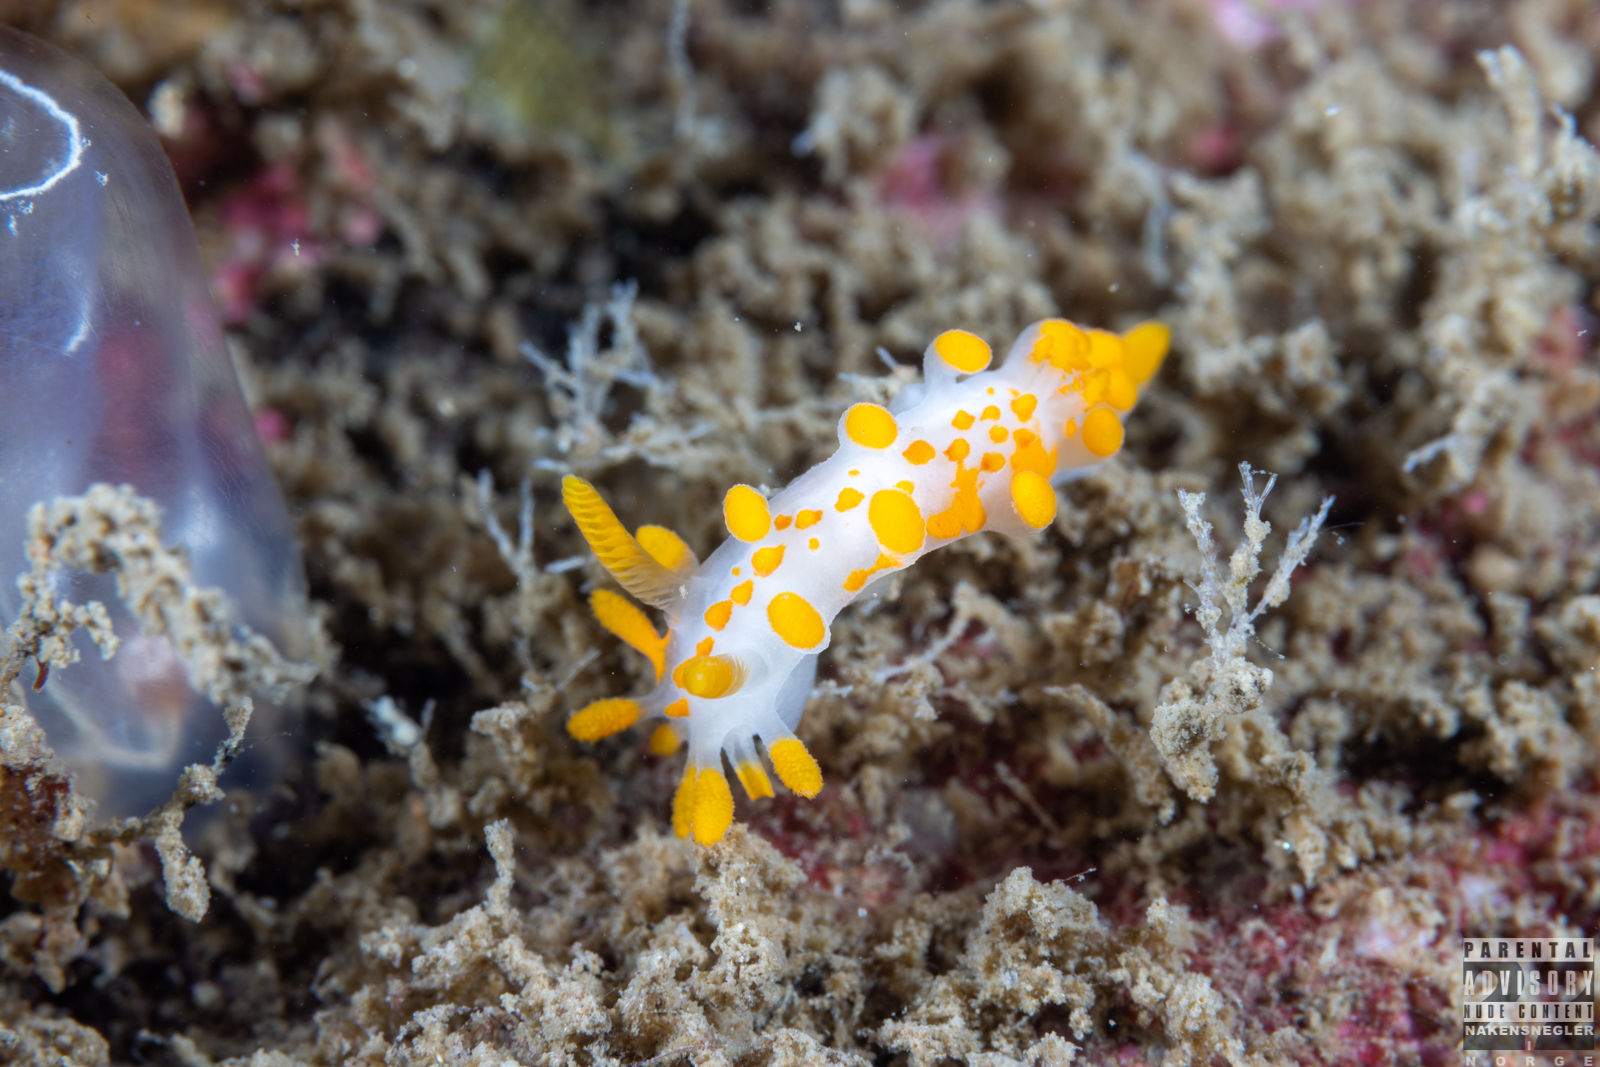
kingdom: Animalia
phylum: Mollusca
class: Gastropoda
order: Nudibranchia
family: Polyceridae
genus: Limacia
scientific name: Limacia clavigera
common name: Orange-clubbed sea slug
